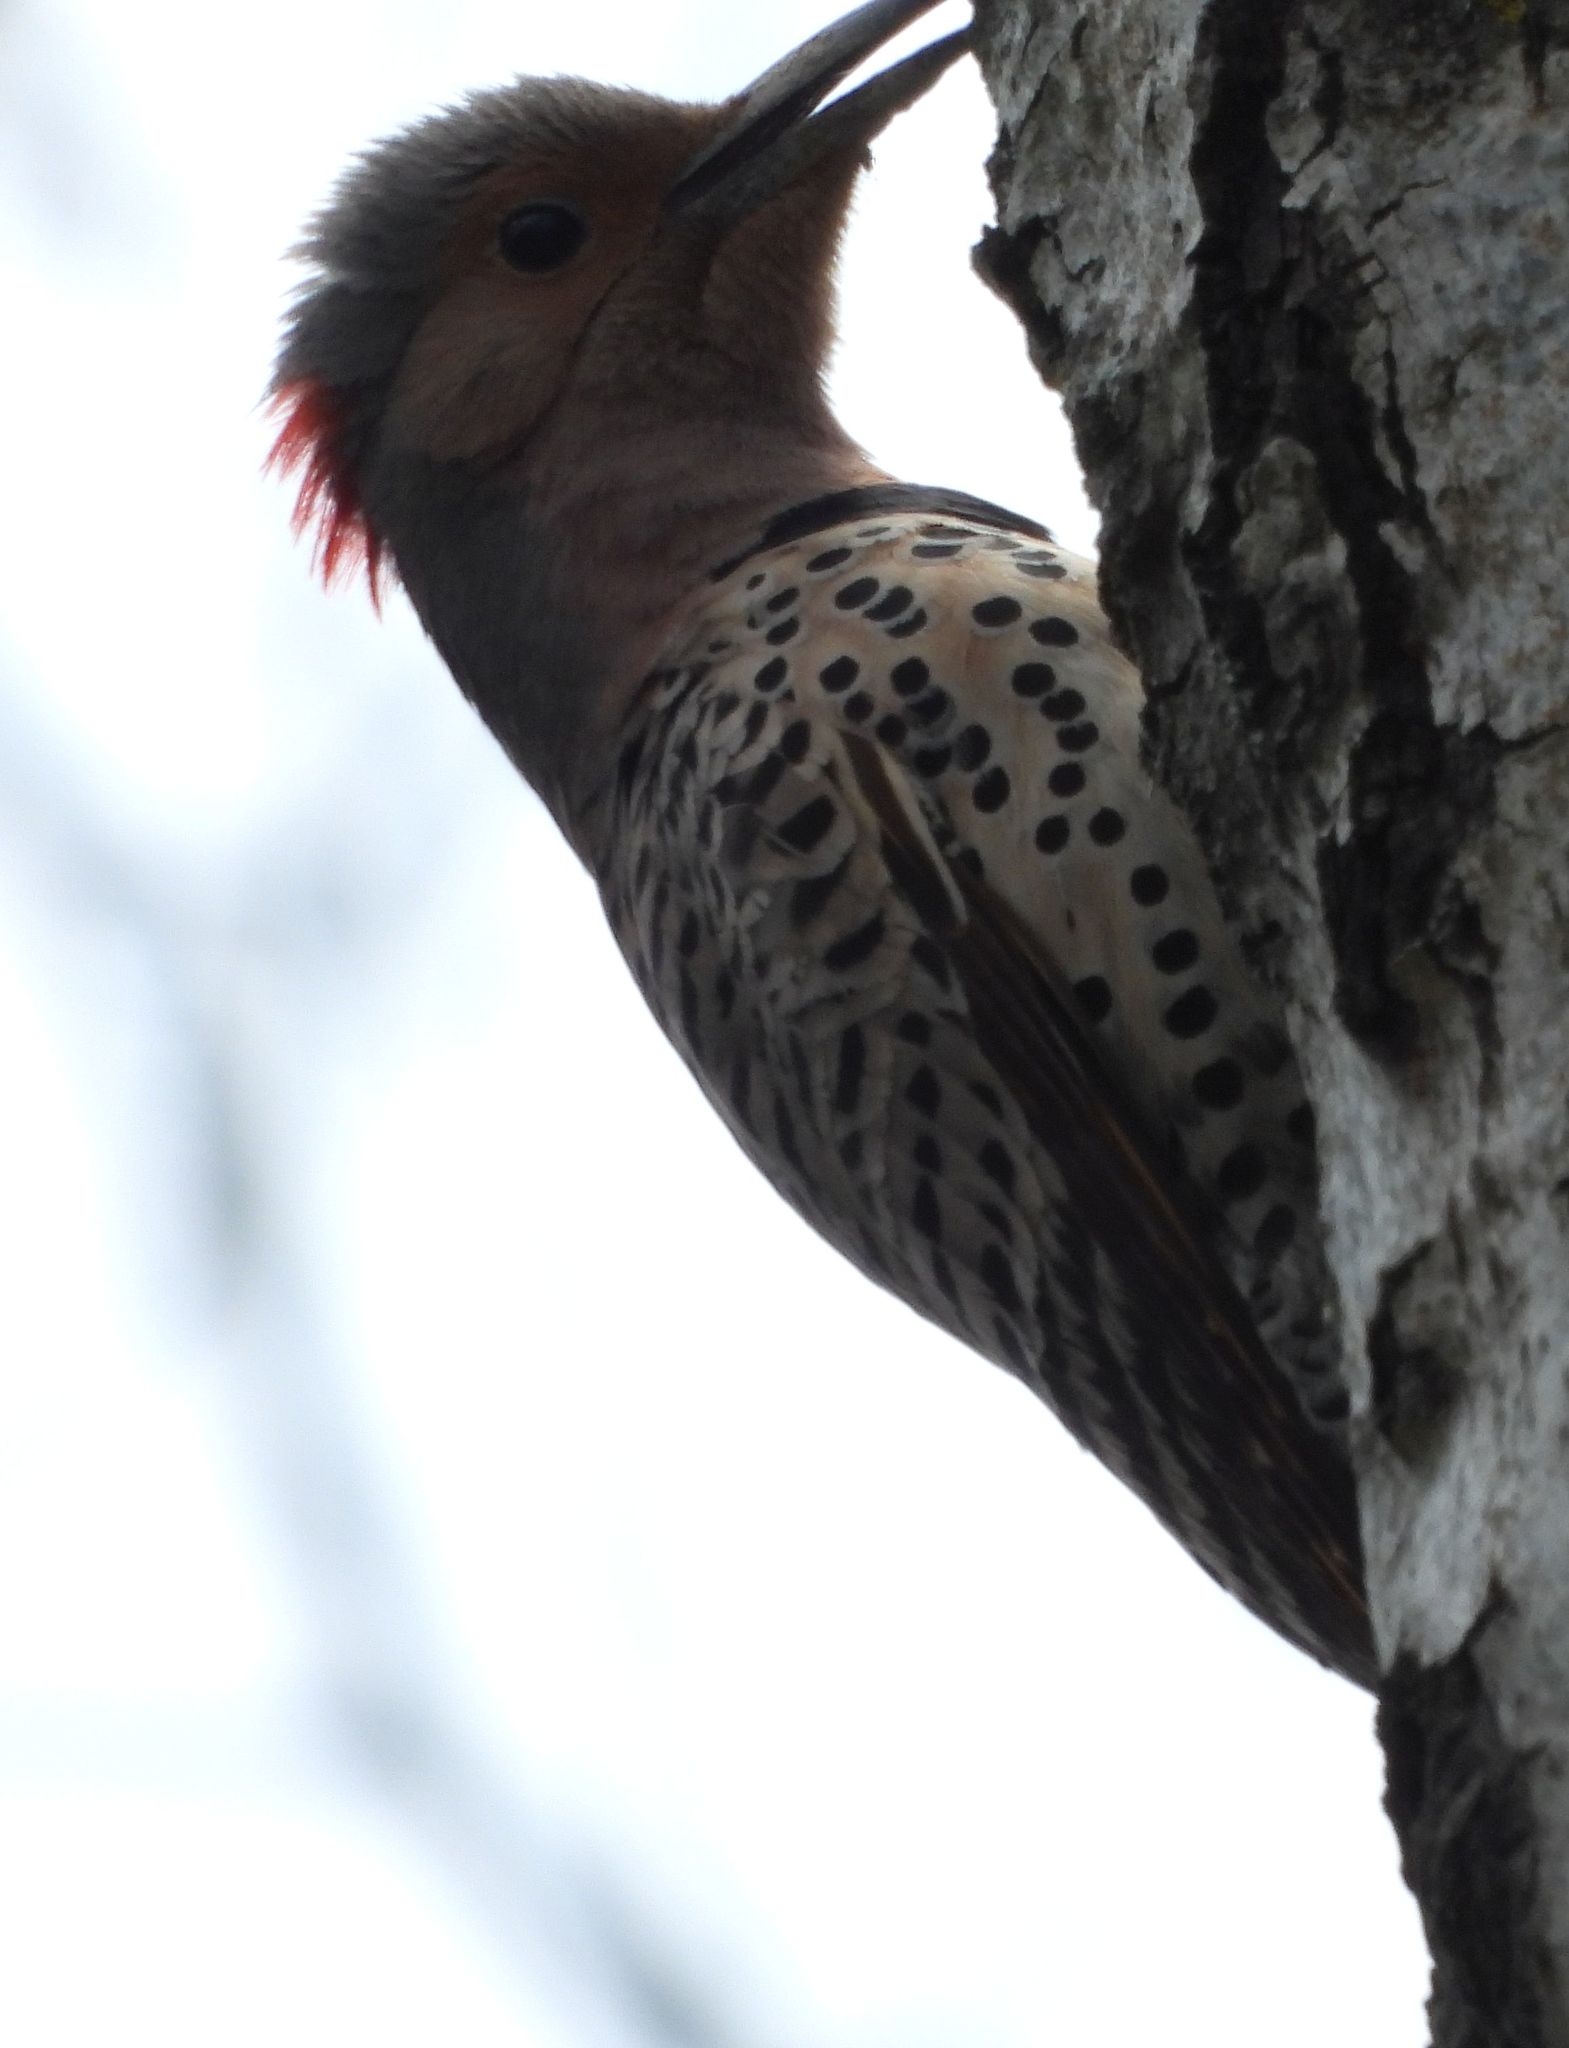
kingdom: Animalia
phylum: Chordata
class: Aves
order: Piciformes
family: Picidae
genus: Colaptes
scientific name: Colaptes auratus
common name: Northern flicker
